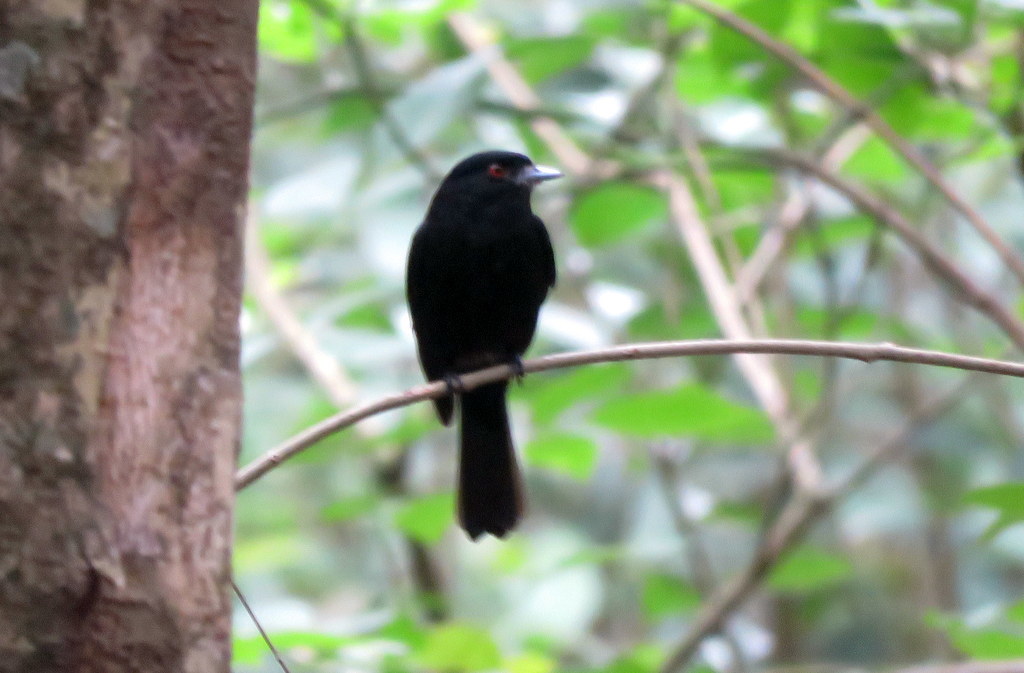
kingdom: Animalia
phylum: Chordata
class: Aves
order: Passeriformes
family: Tyrannidae
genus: Knipolegus
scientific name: Knipolegus cyanirostris
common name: Blue-billed black tyrant
